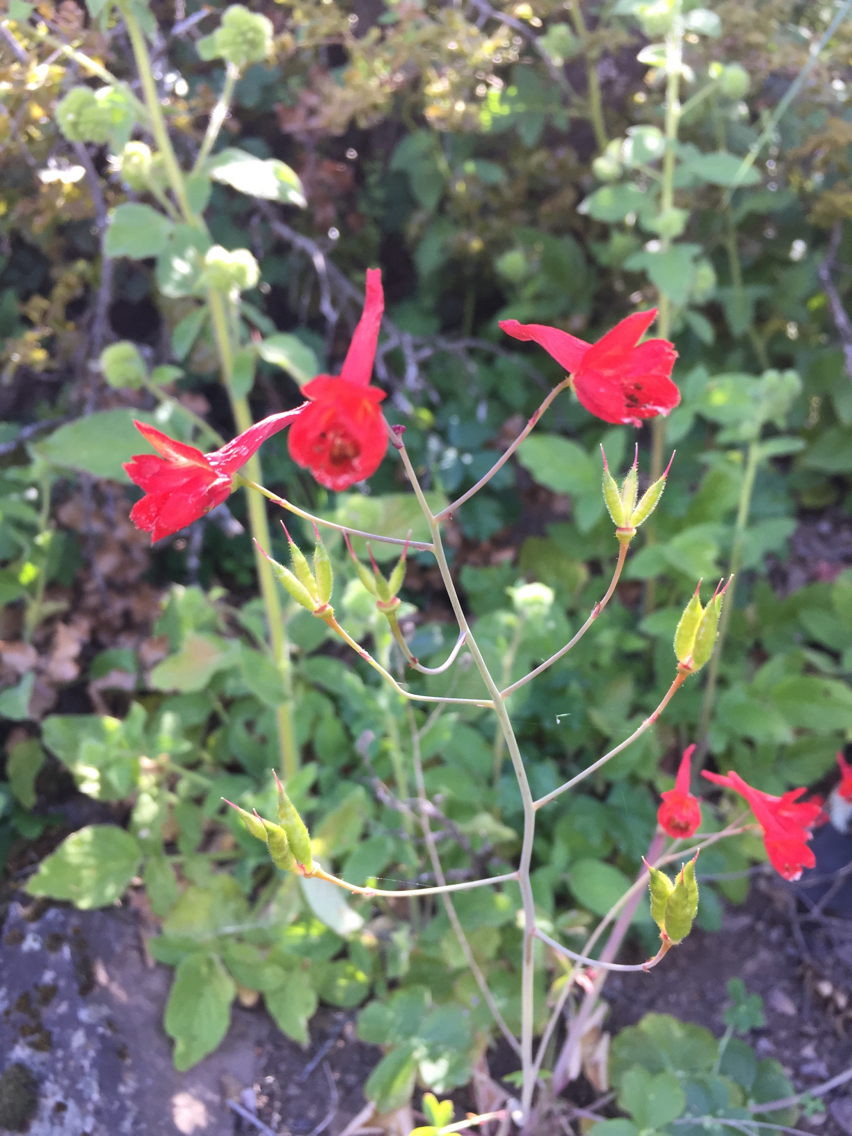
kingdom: Plantae
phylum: Tracheophyta
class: Magnoliopsida
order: Ranunculales
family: Ranunculaceae
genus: Delphinium
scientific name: Delphinium nudicaule
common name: Red larkspur
